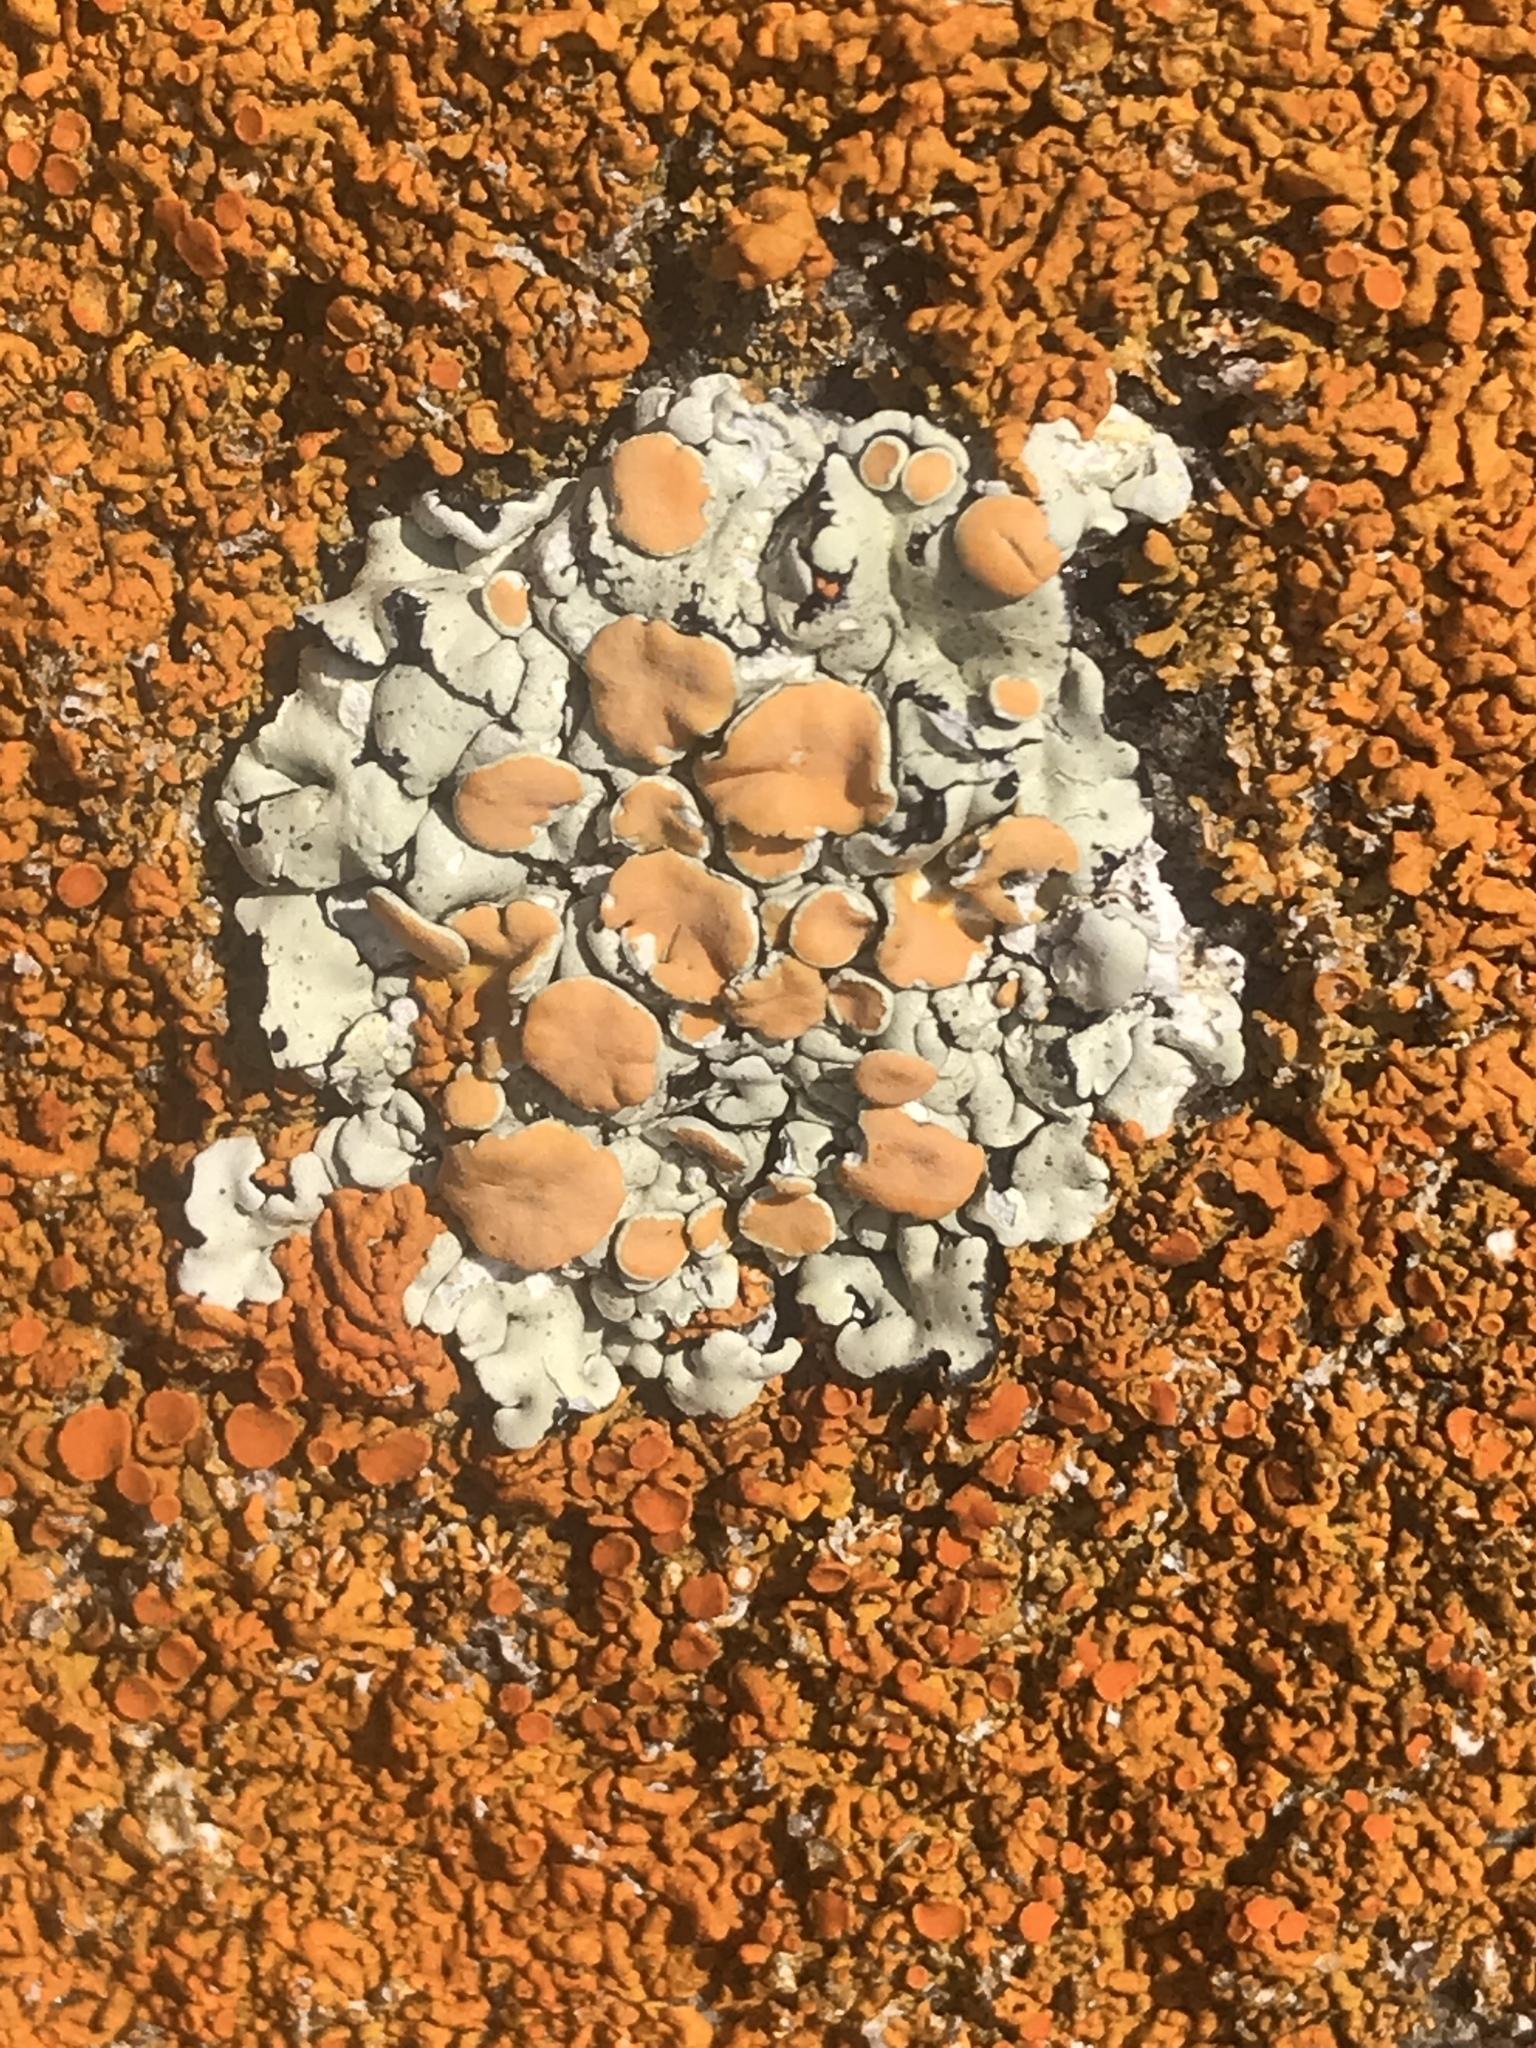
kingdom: Fungi
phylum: Ascomycota
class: Lecanoromycetes
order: Lecanorales
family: Lecanoraceae
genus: Omphalodina
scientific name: Omphalodina chrysoleuca
